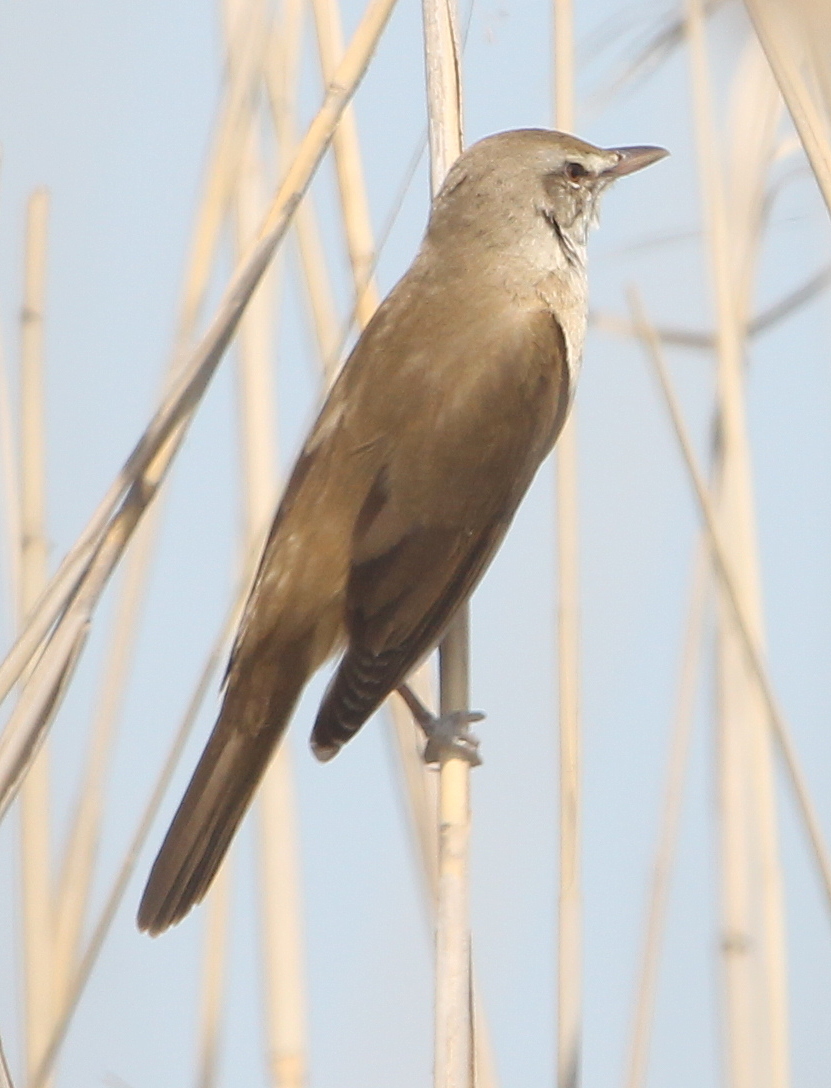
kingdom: Animalia
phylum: Chordata
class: Aves
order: Passeriformes
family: Acrocephalidae
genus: Acrocephalus
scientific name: Acrocephalus arundinaceus
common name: Great reed warbler
